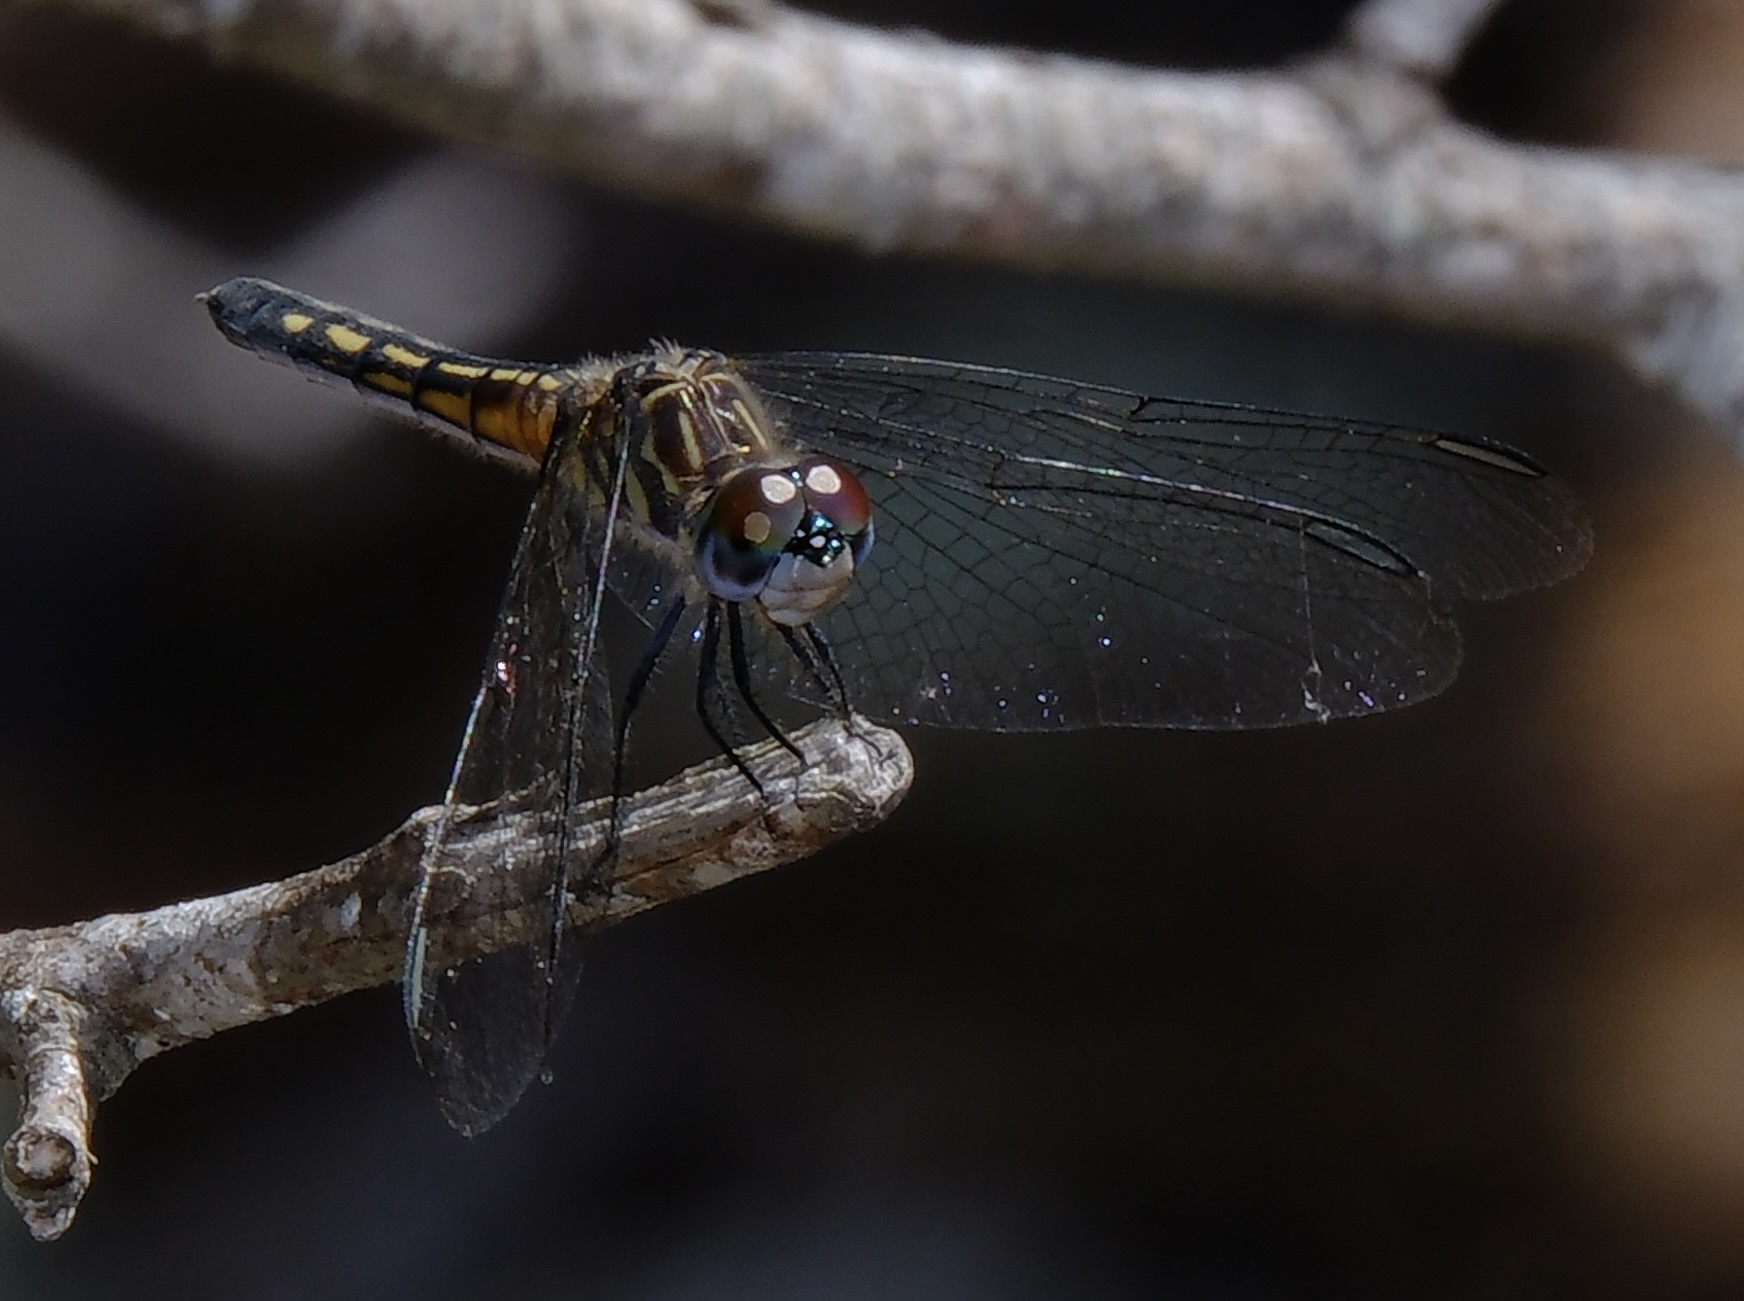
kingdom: Animalia
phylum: Arthropoda
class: Insecta
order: Odonata
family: Libellulidae
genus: Pachydiplax
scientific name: Pachydiplax longipennis
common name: Blue dasher
